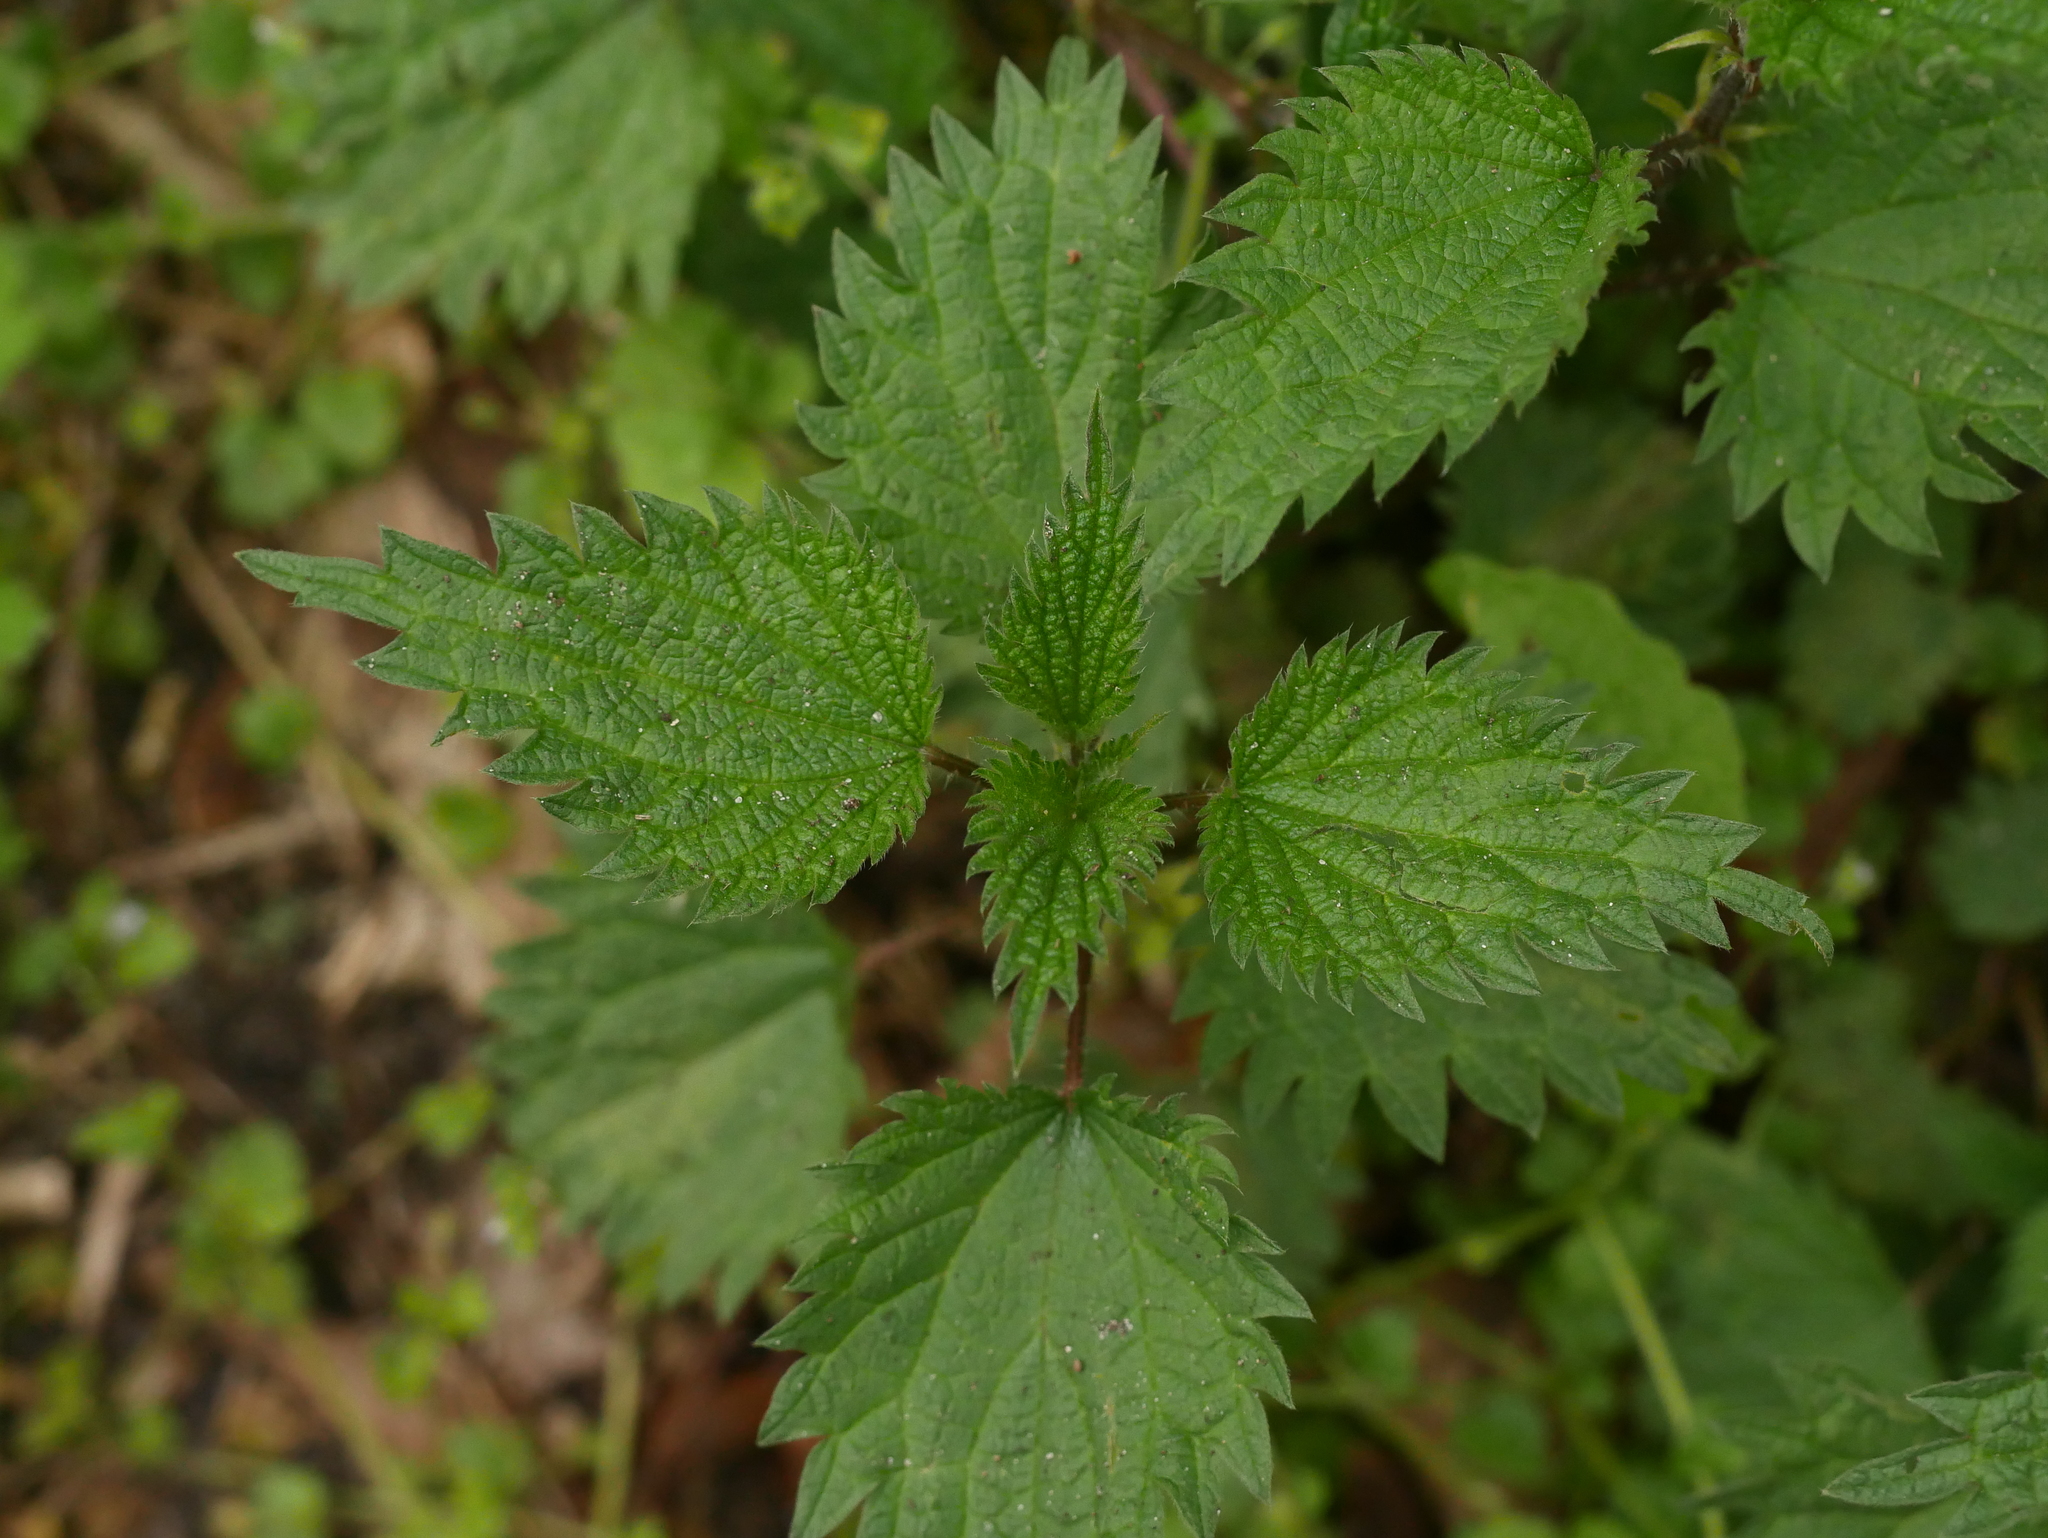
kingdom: Plantae
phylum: Tracheophyta
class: Magnoliopsida
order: Rosales
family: Urticaceae
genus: Urtica
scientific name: Urtica dioica
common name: Common nettle
